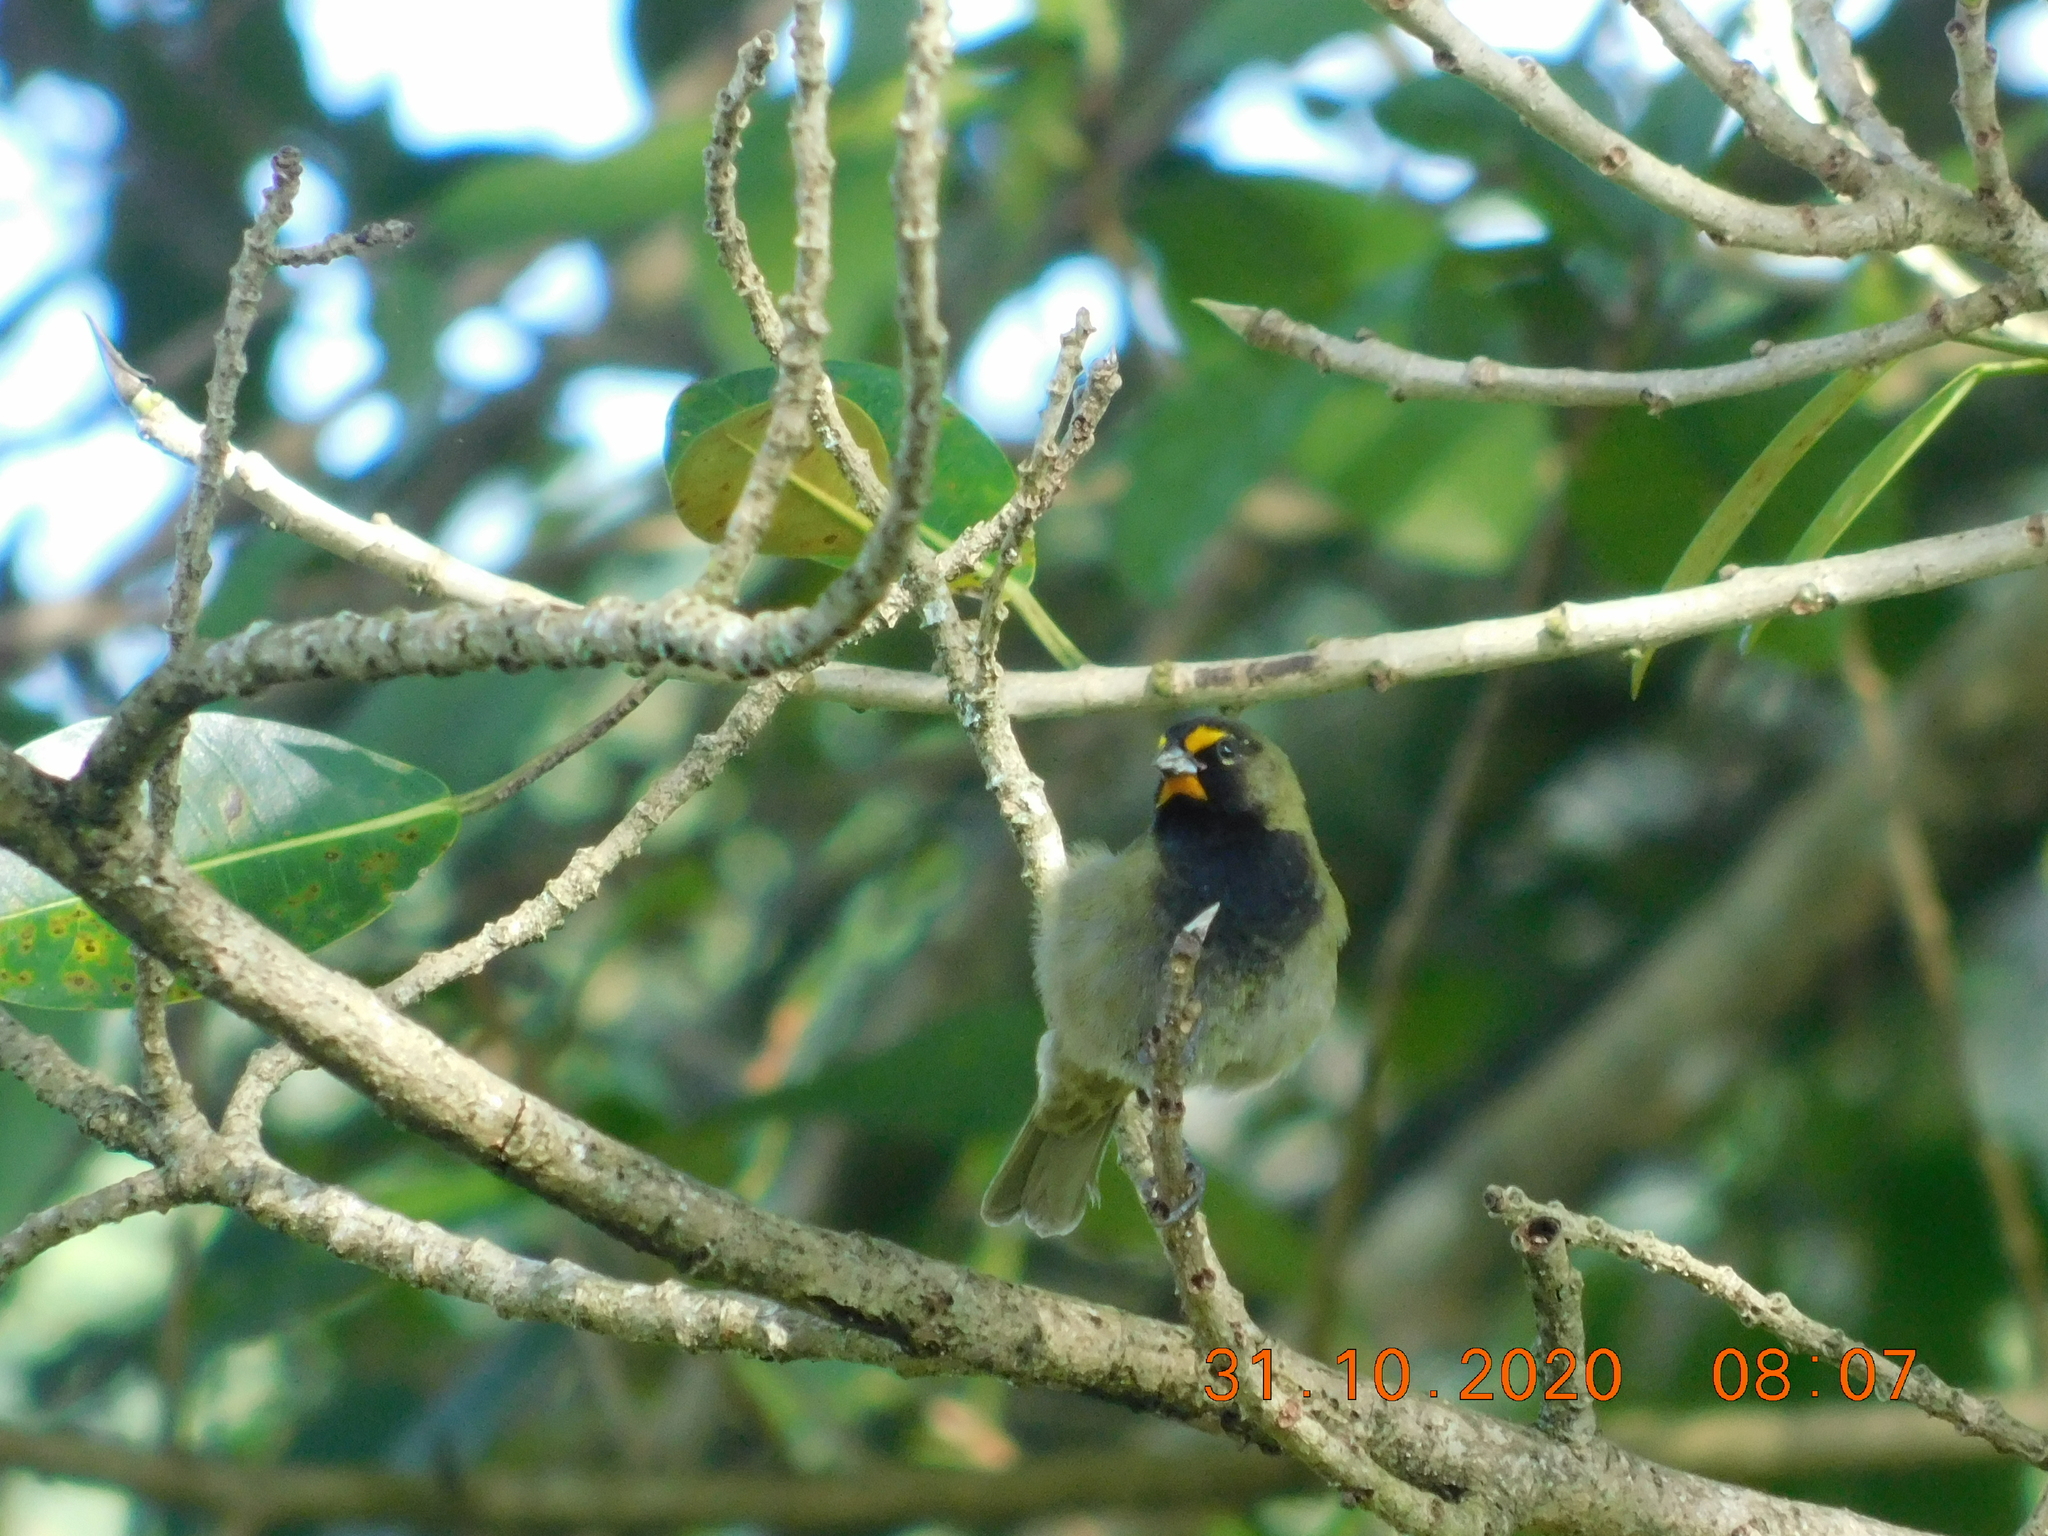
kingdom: Animalia
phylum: Chordata
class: Aves
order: Passeriformes
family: Thraupidae
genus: Tiaris
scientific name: Tiaris olivaceus
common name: Yellow-faced grassquit
